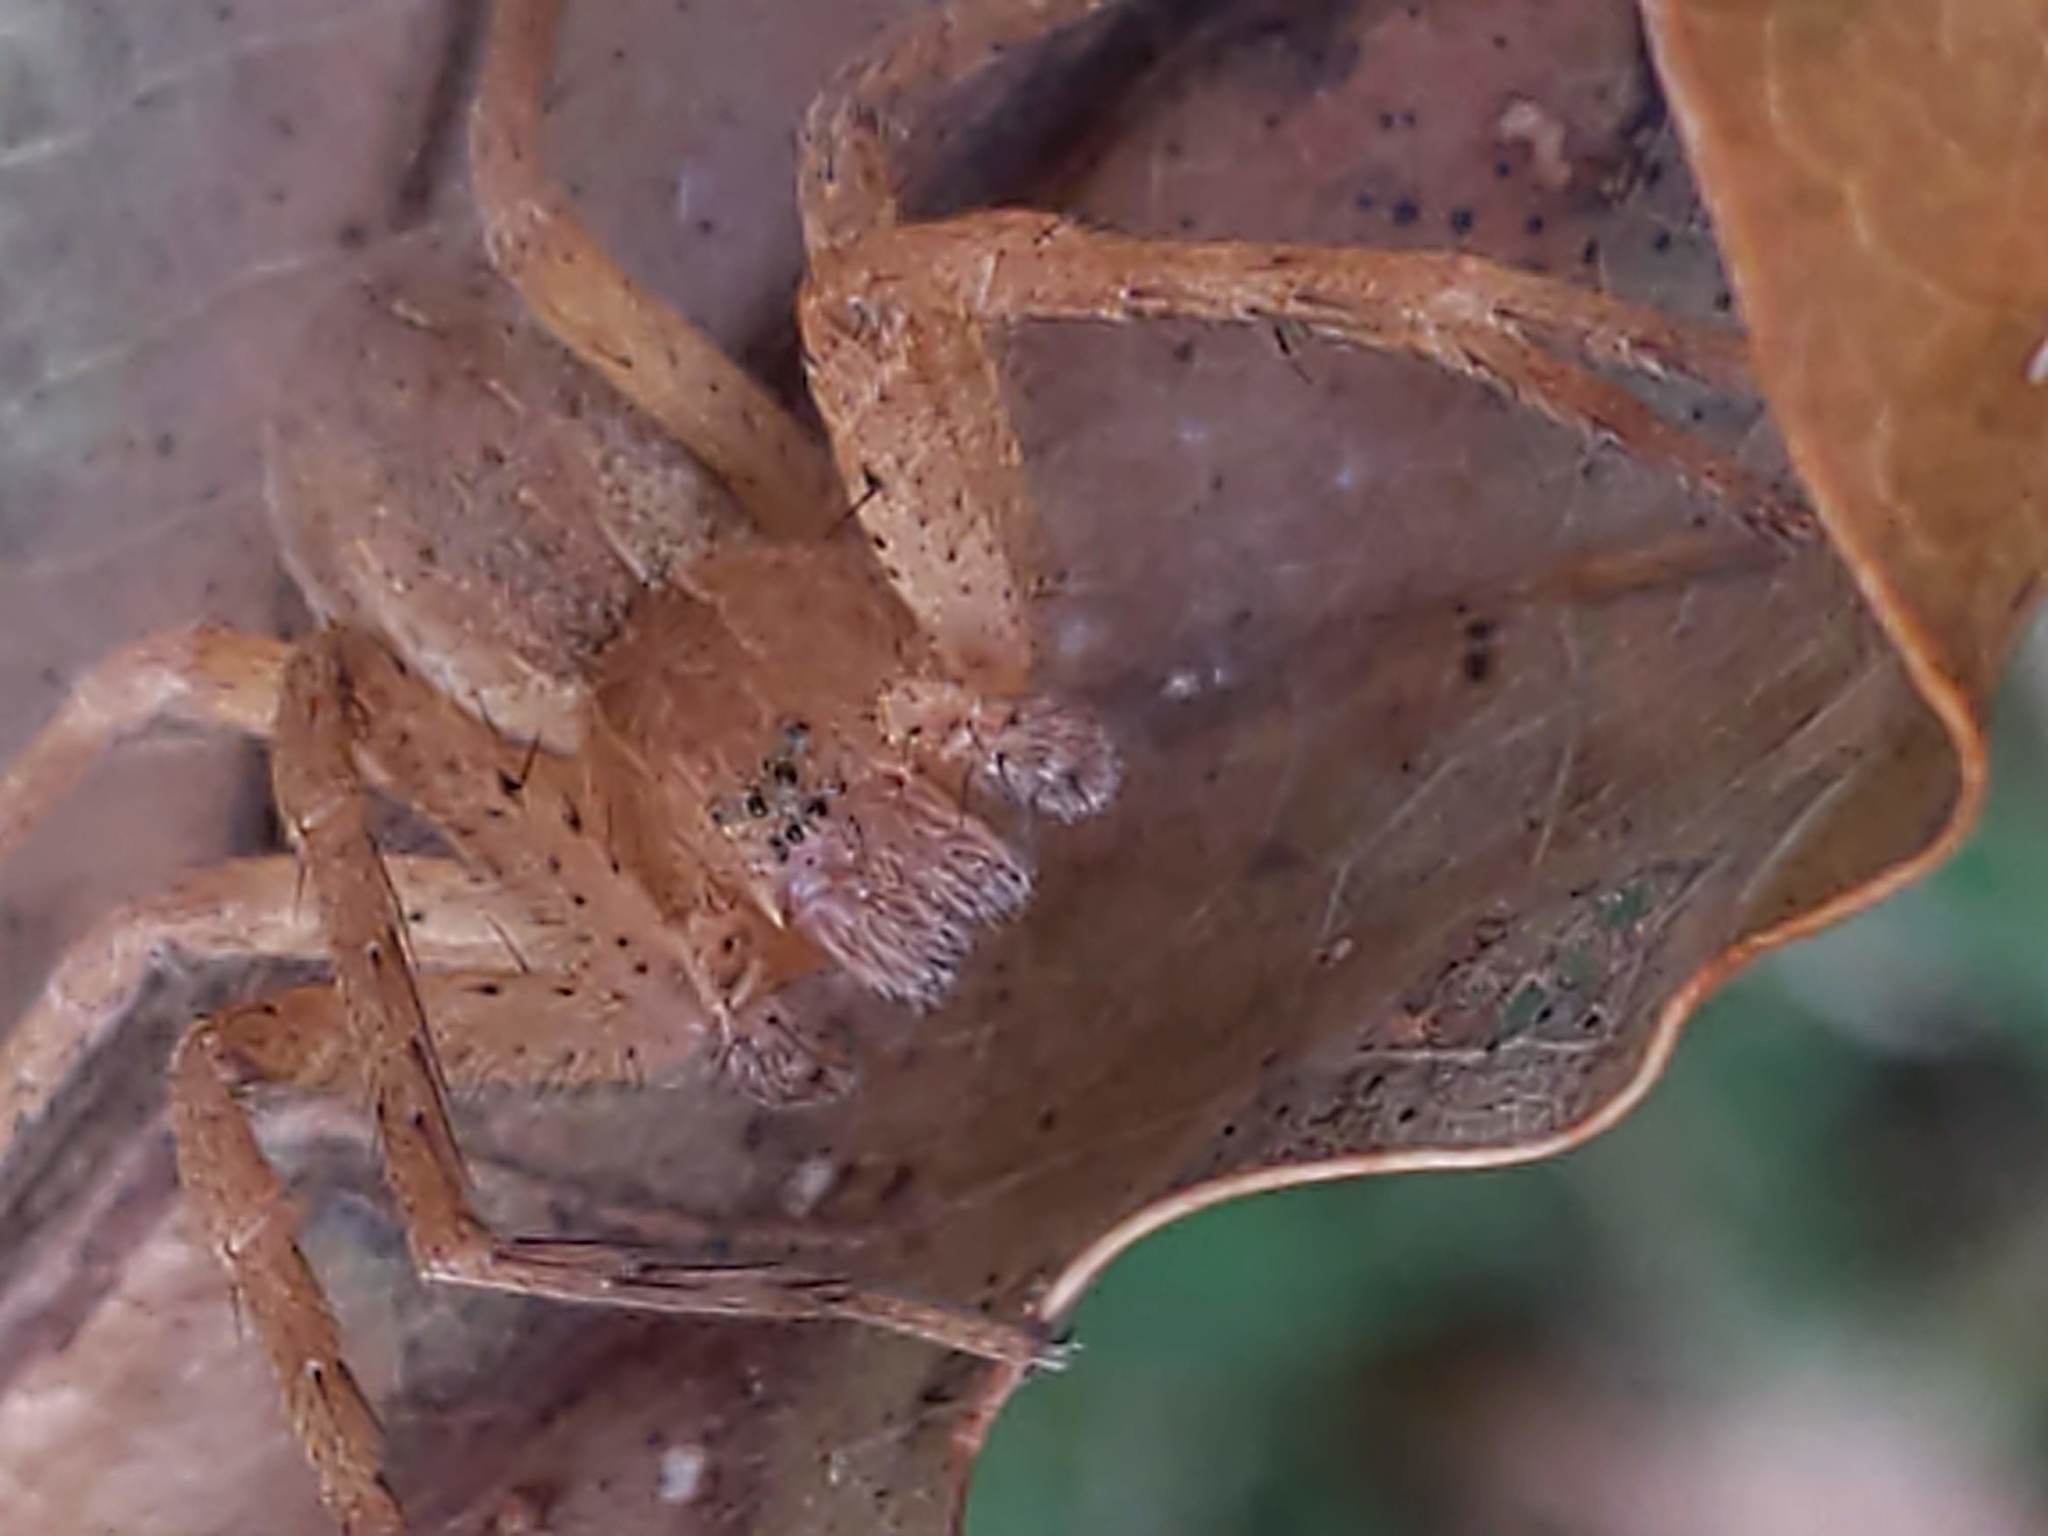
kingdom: Animalia
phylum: Arthropoda
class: Arachnida
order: Araneae
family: Pisauridae
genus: Pisaurina
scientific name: Pisaurina mira
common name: American nursery web spider
